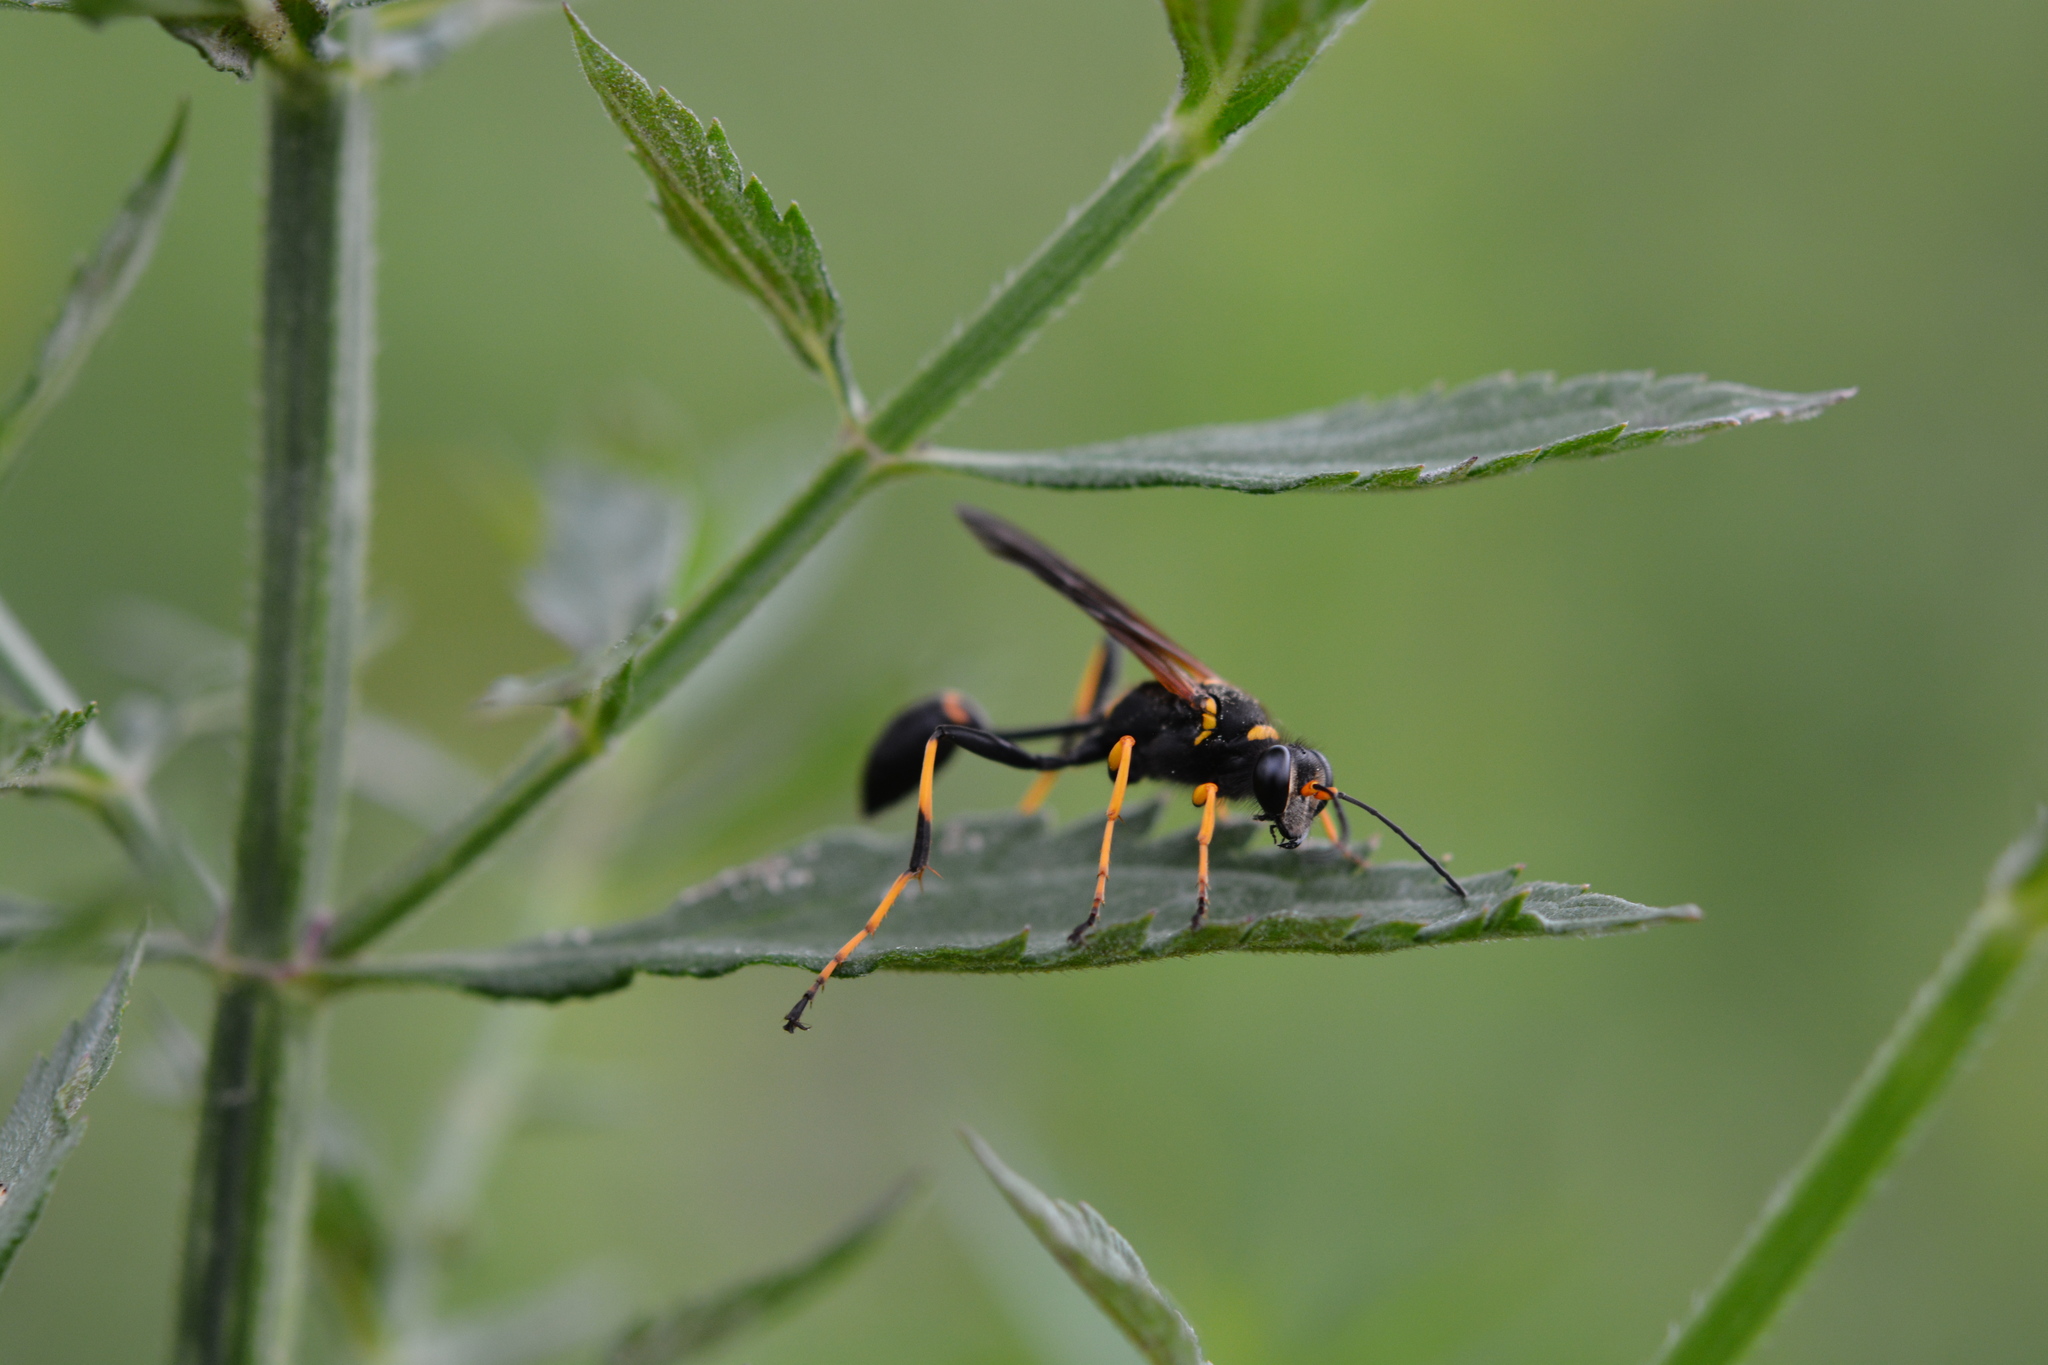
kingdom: Animalia
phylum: Arthropoda
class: Insecta
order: Hymenoptera
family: Sphecidae
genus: Sceliphron
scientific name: Sceliphron caementarium
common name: Mud dauber
